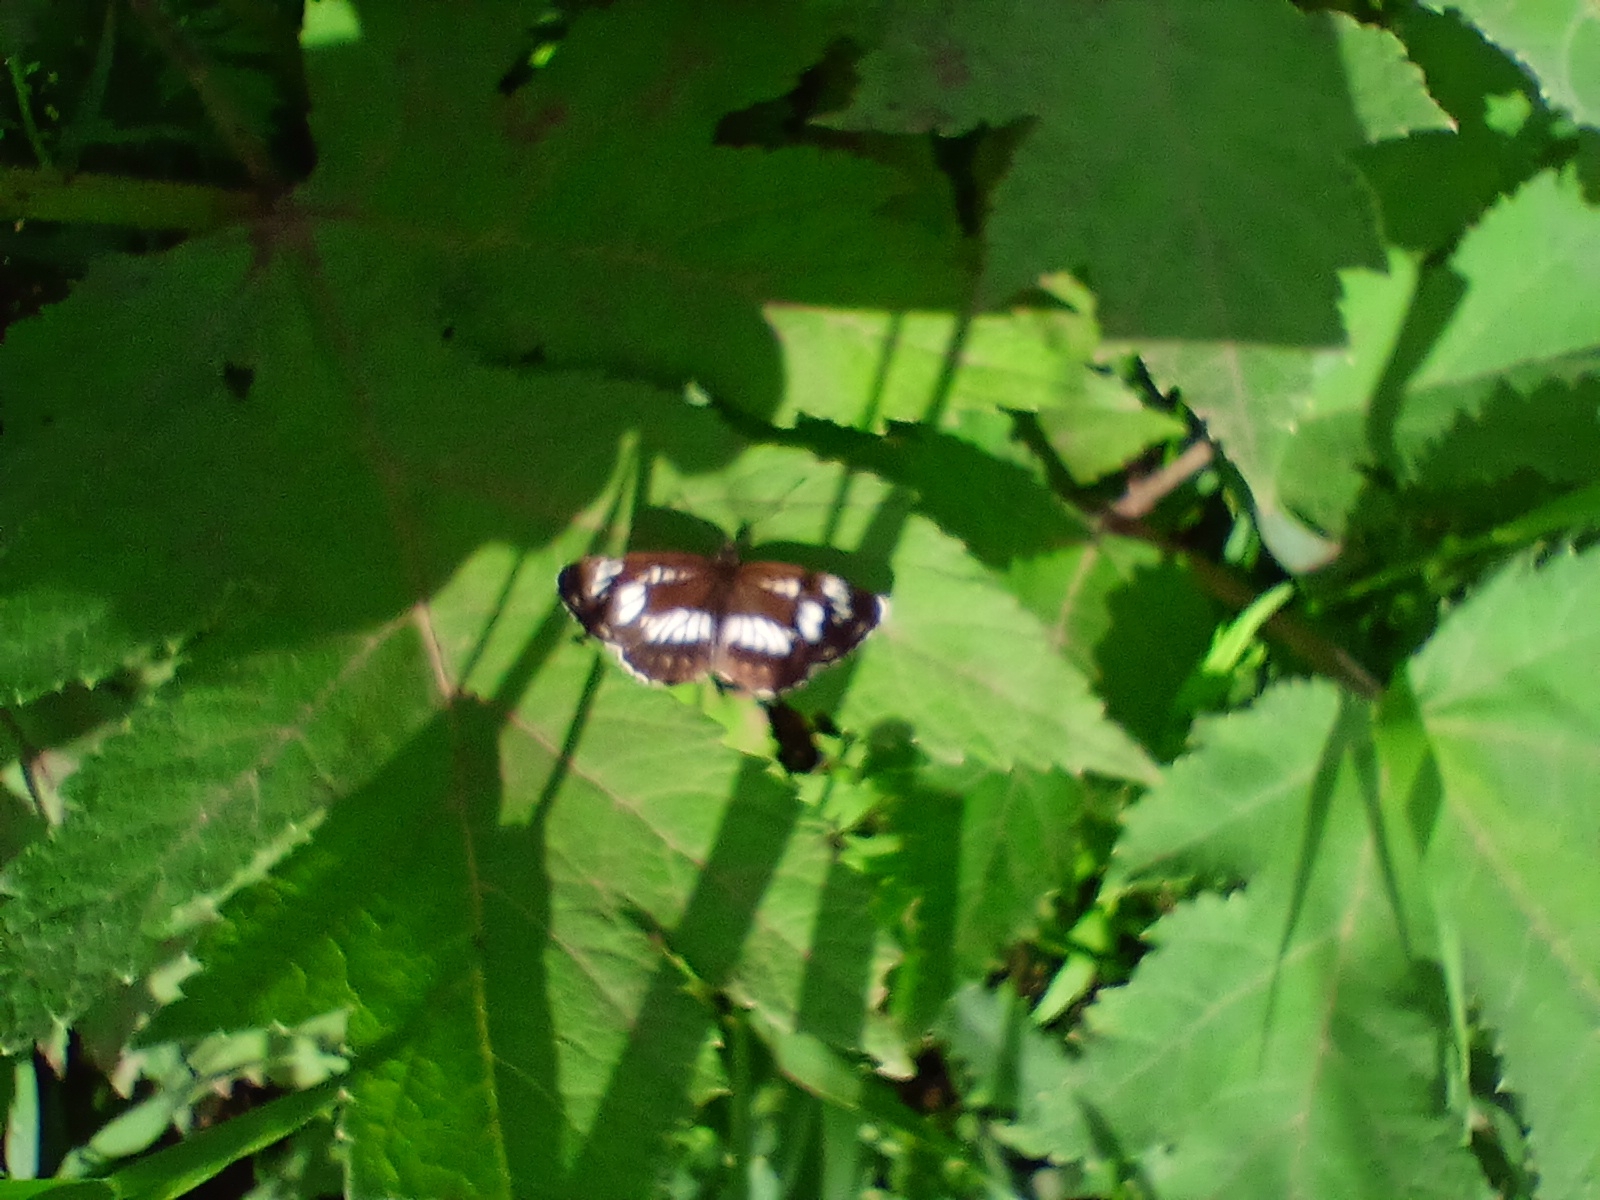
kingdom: Animalia
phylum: Arthropoda
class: Insecta
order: Lepidoptera
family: Nymphalidae
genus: Neptis
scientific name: Neptis rivularis
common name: Hungarian glider
